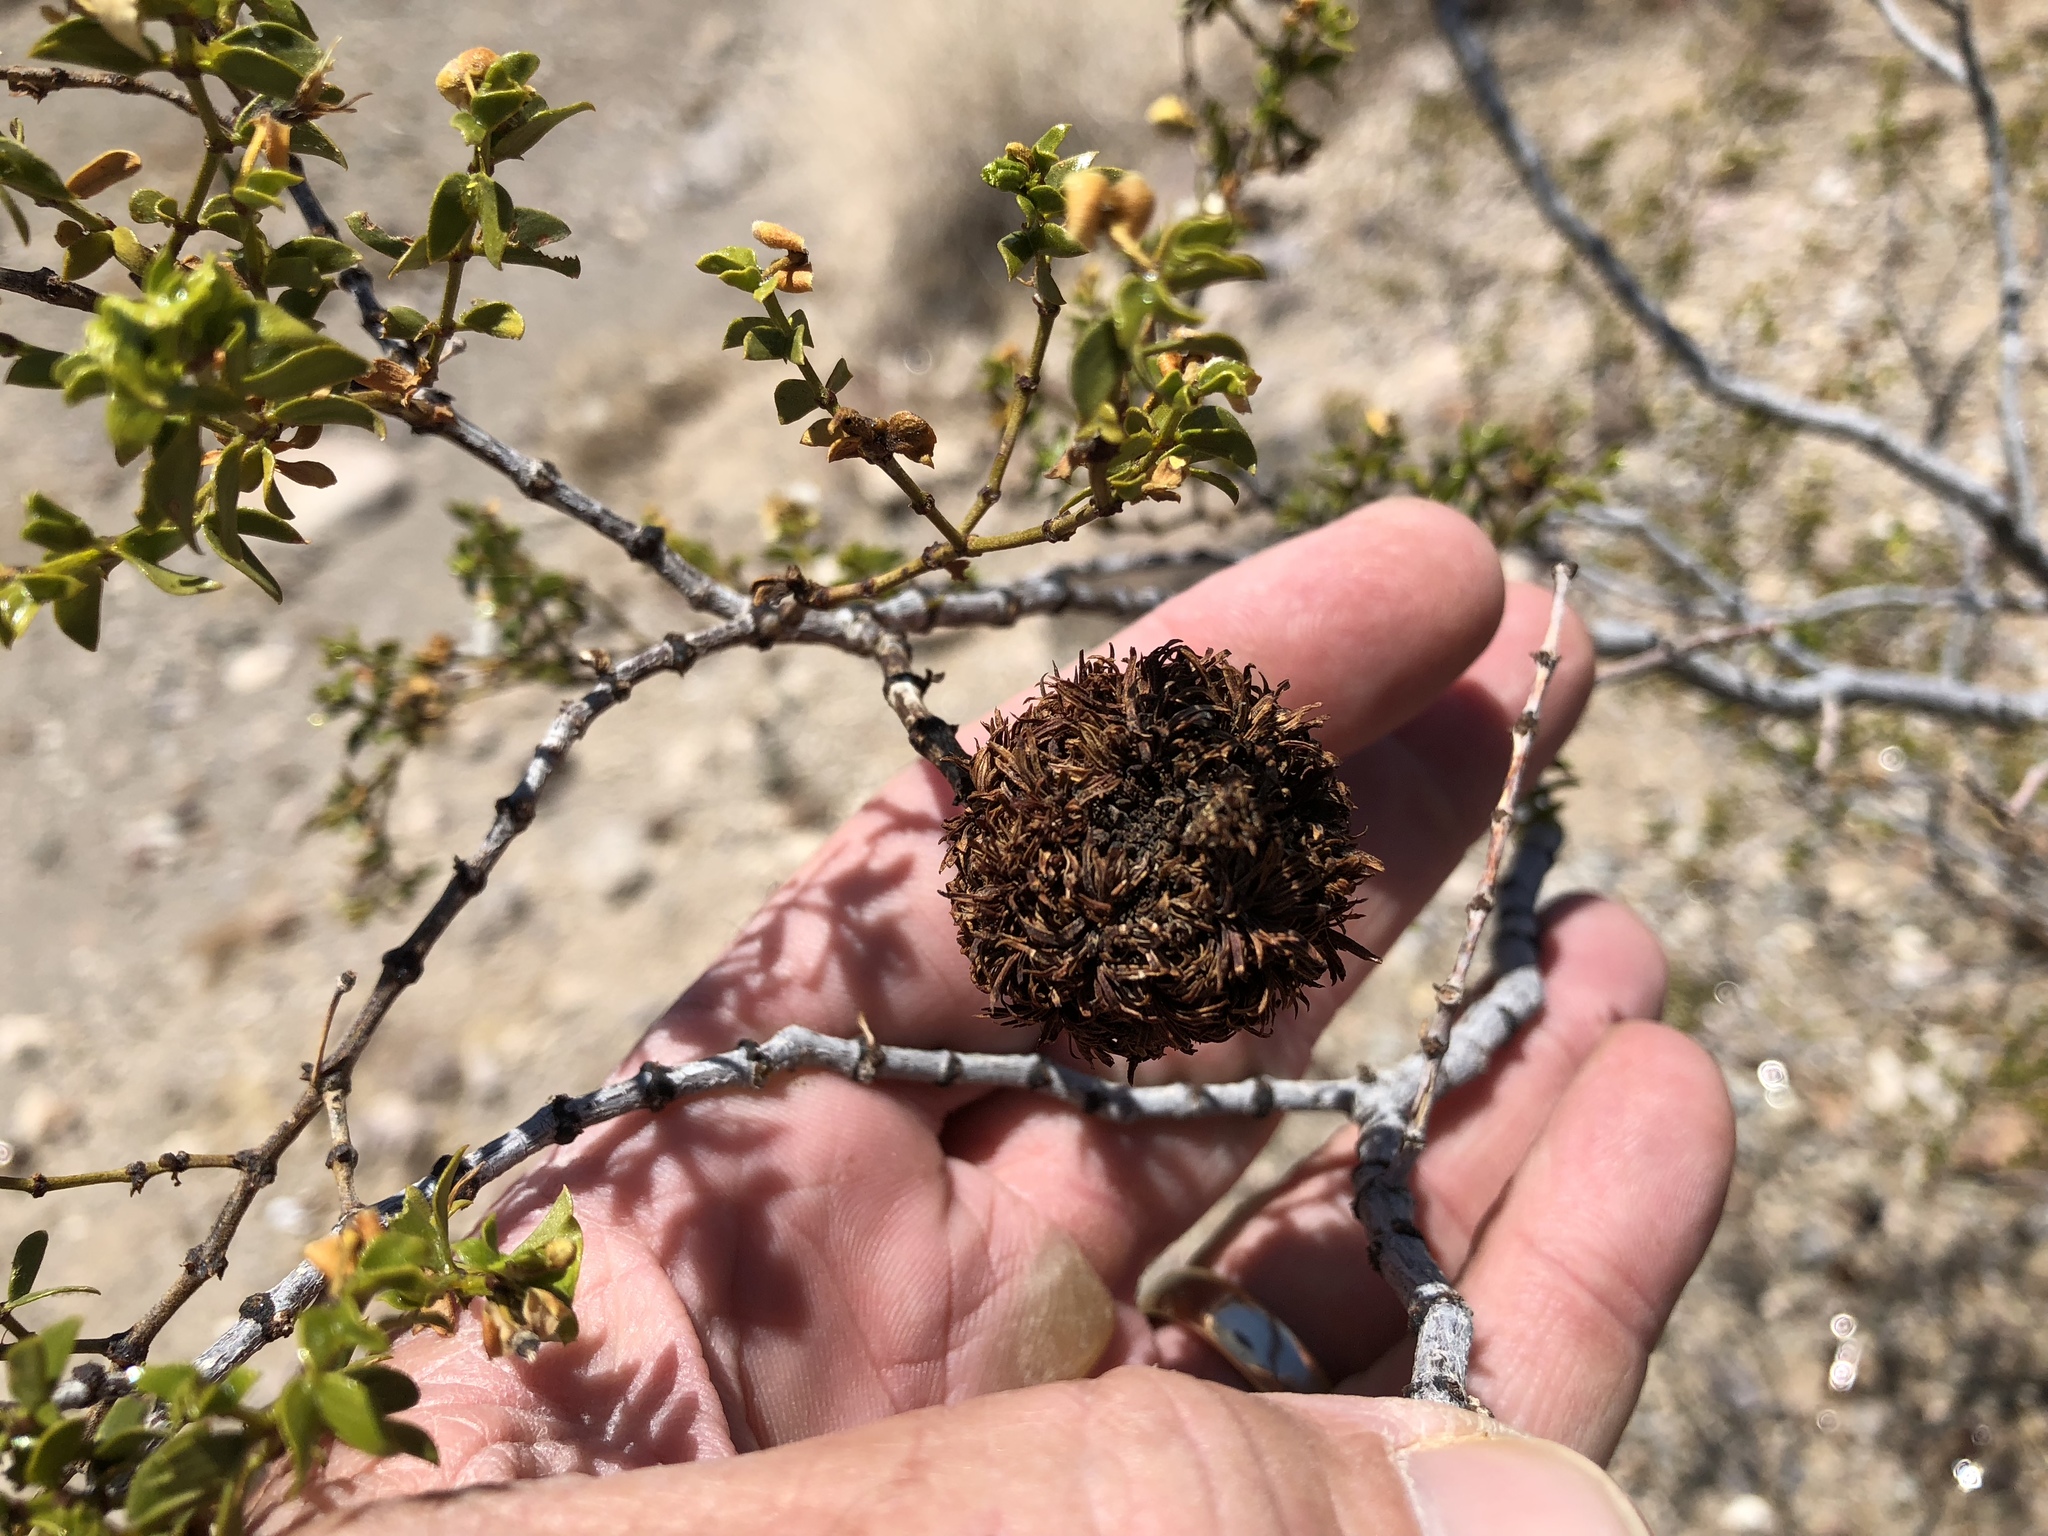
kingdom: Animalia
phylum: Arthropoda
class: Insecta
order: Diptera
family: Cecidomyiidae
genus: Asphondylia
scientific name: Asphondylia auripila
